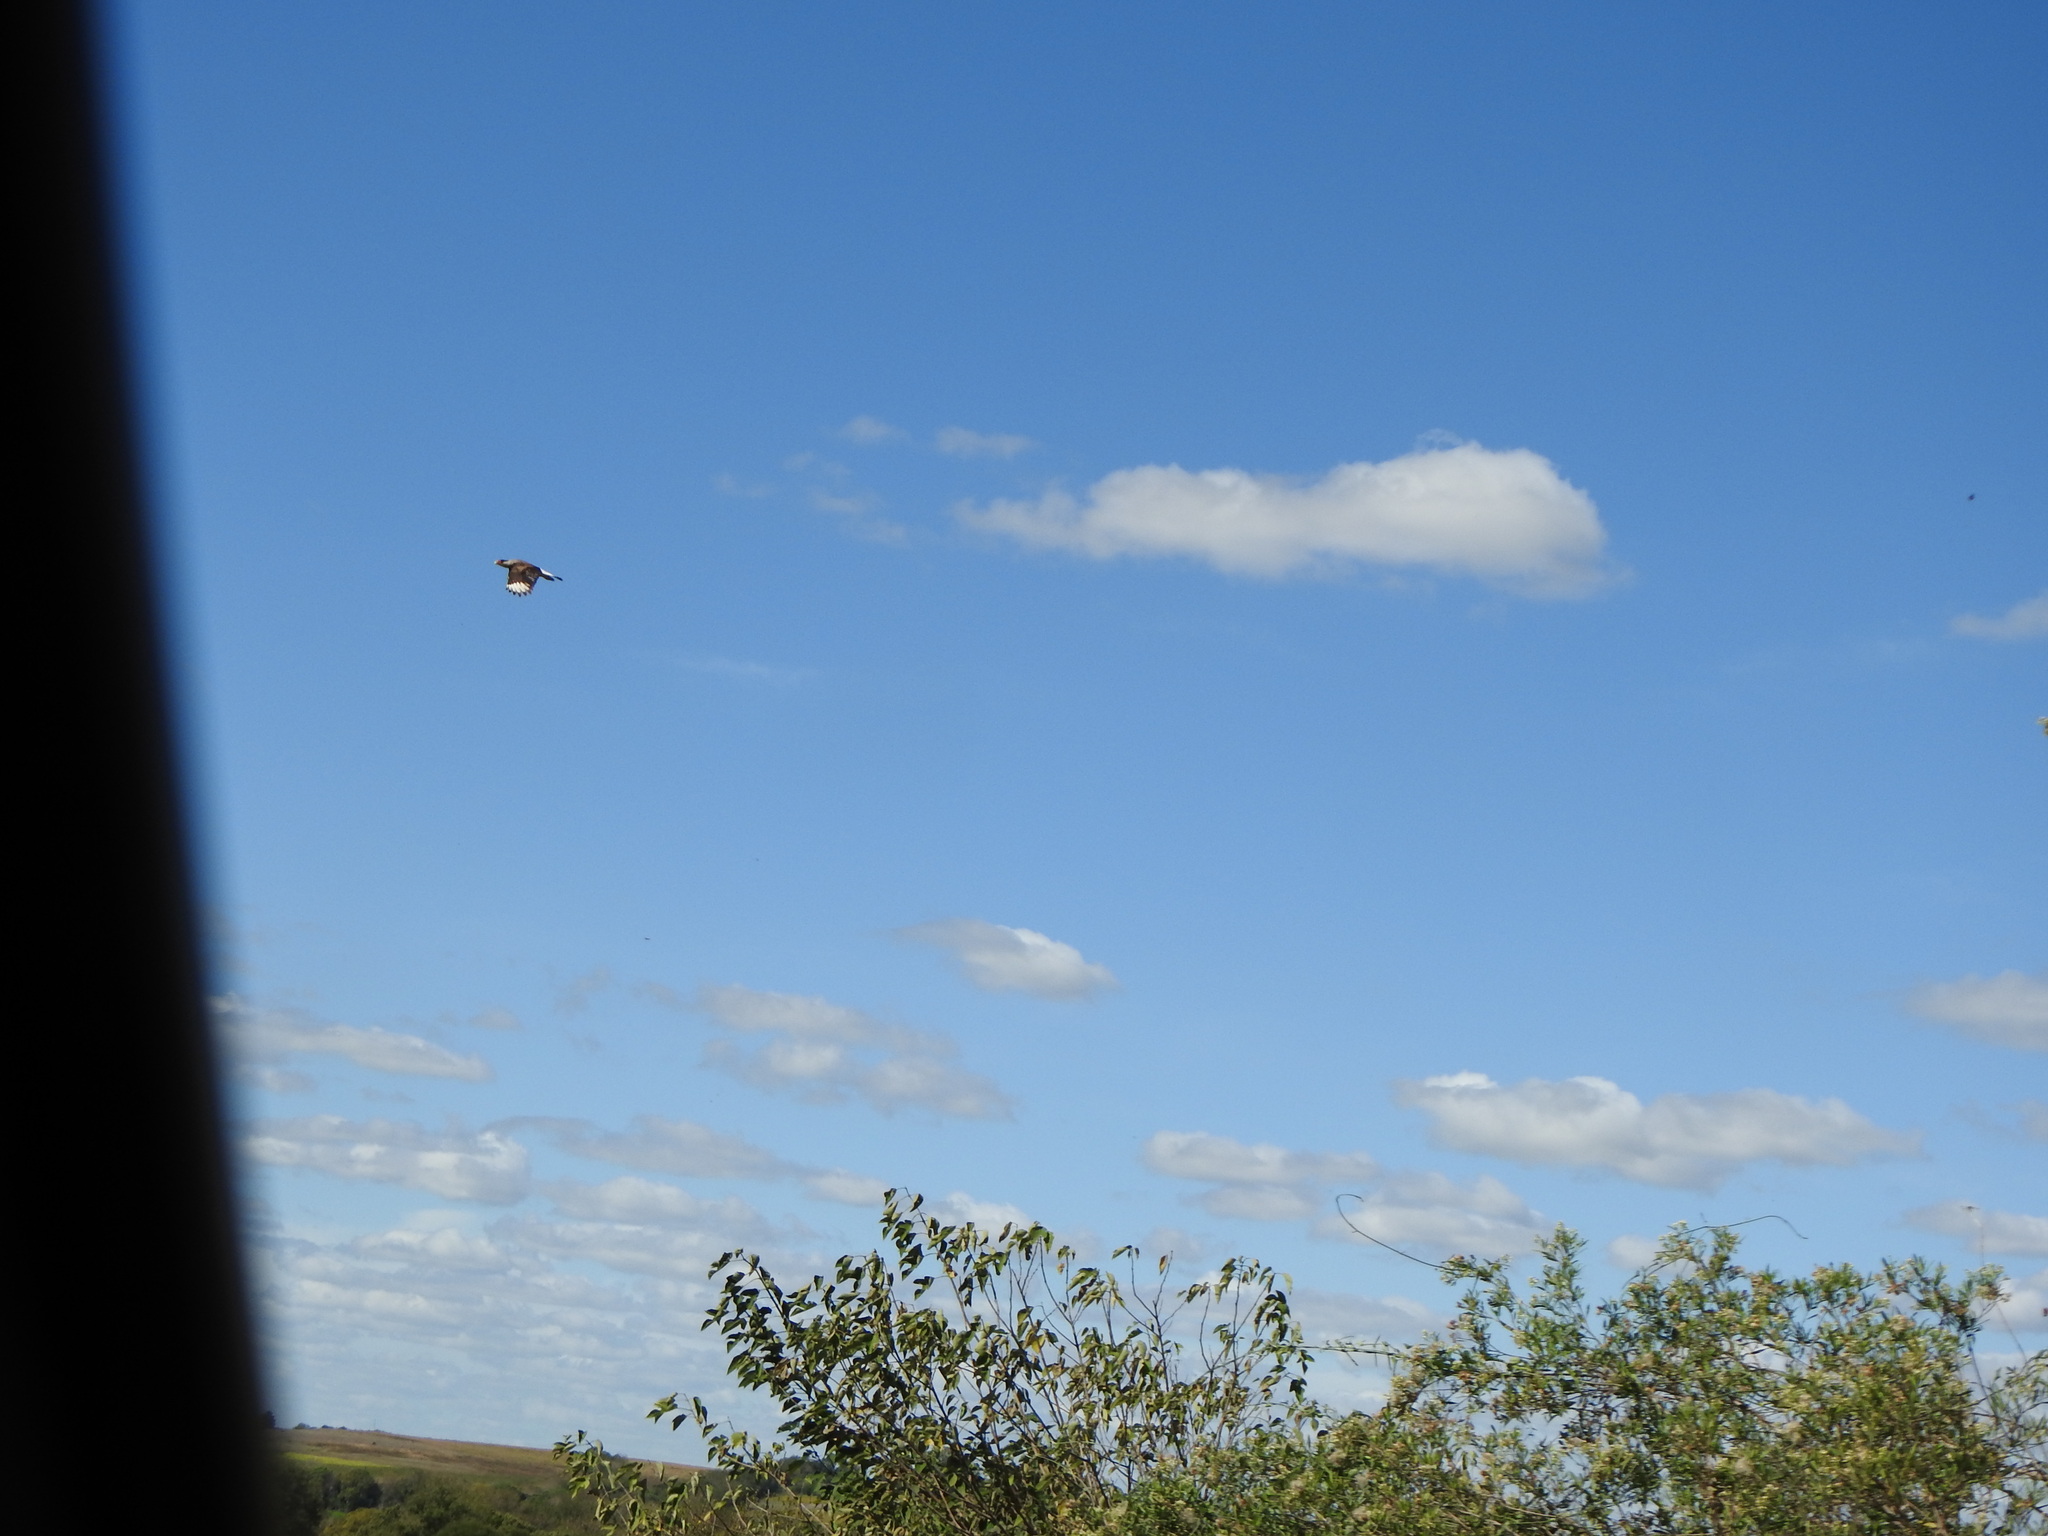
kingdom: Animalia
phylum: Chordata
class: Aves
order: Falconiformes
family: Falconidae
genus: Caracara
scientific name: Caracara plancus
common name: Southern caracara
